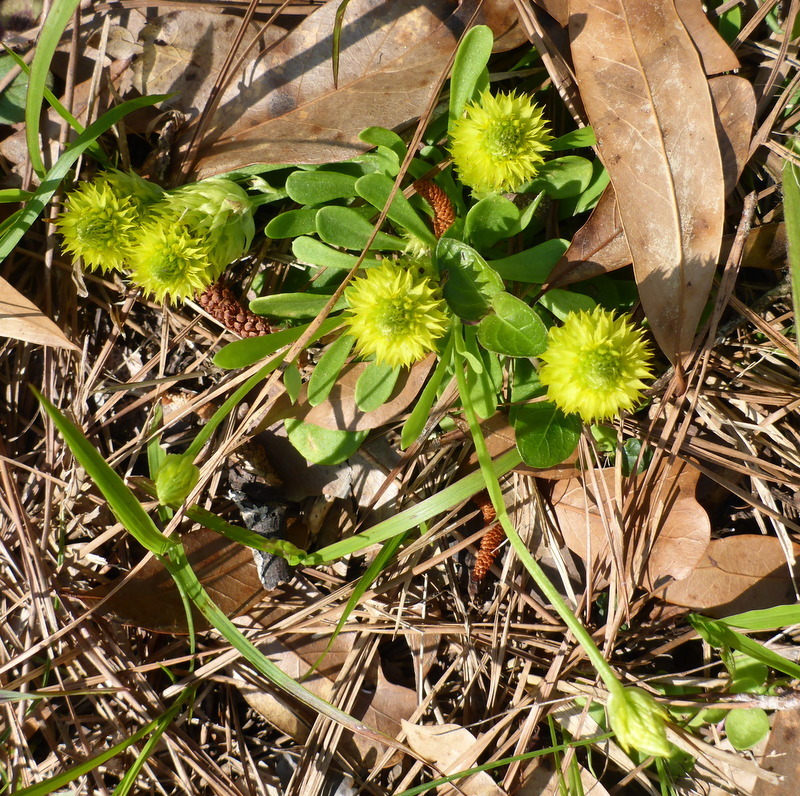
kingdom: Plantae
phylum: Tracheophyta
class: Magnoliopsida
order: Fabales
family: Polygalaceae
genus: Polygala
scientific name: Polygala nana
